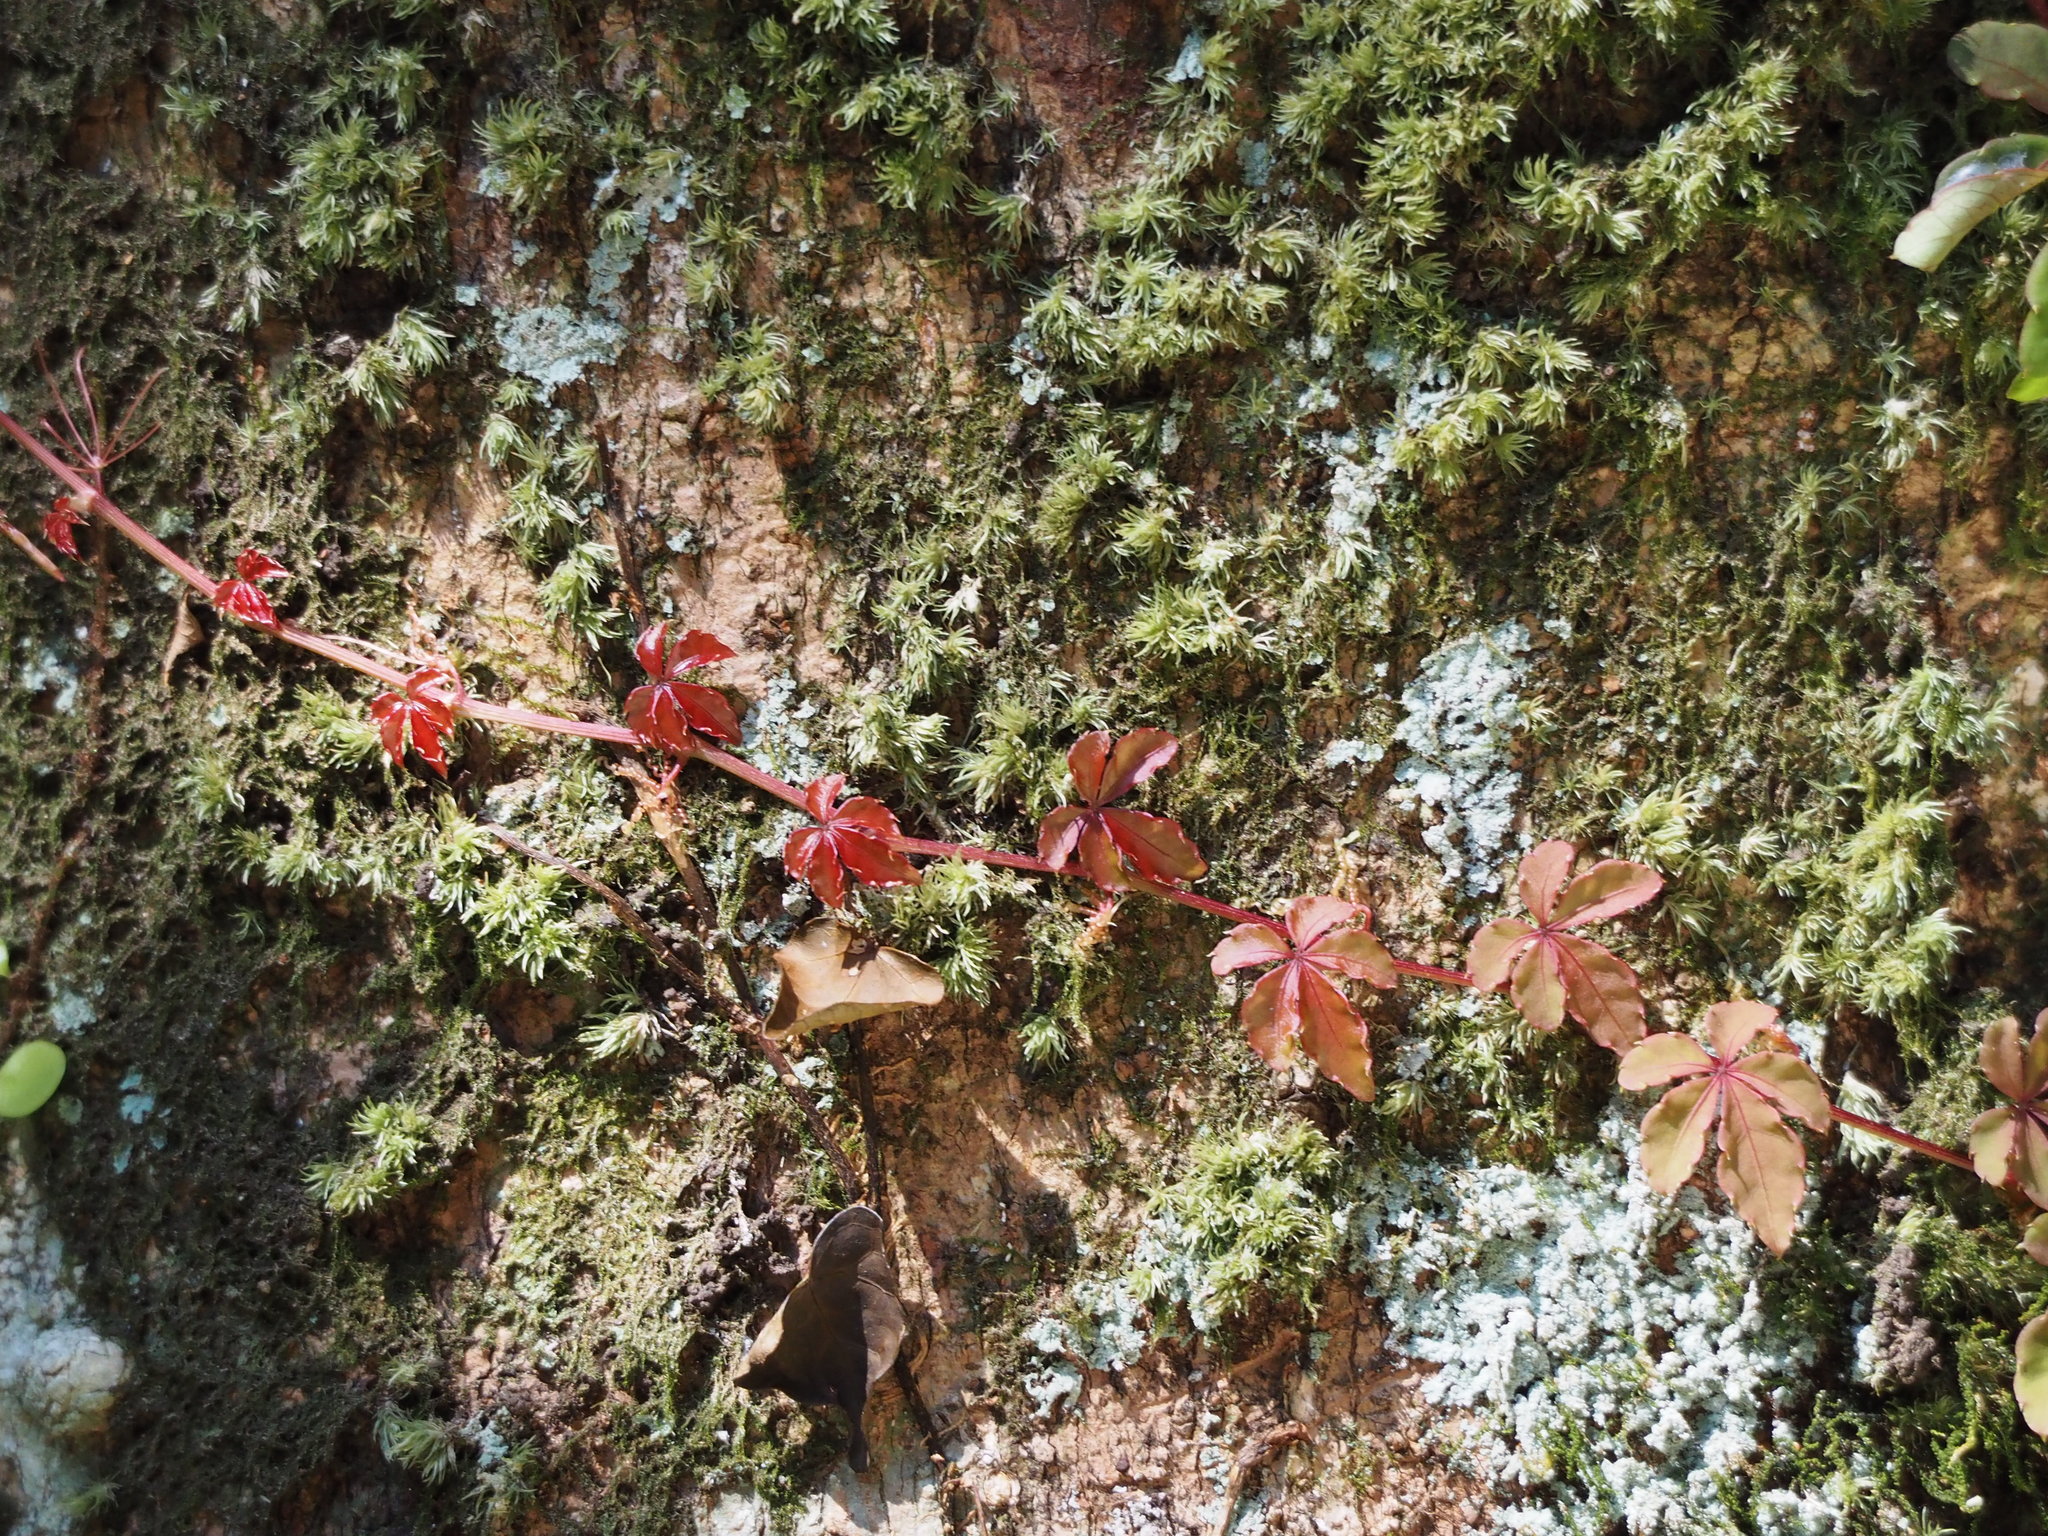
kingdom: Plantae
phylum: Tracheophyta
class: Magnoliopsida
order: Vitales
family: Vitaceae
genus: Tetrastigma
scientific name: Tetrastigma obtectum
